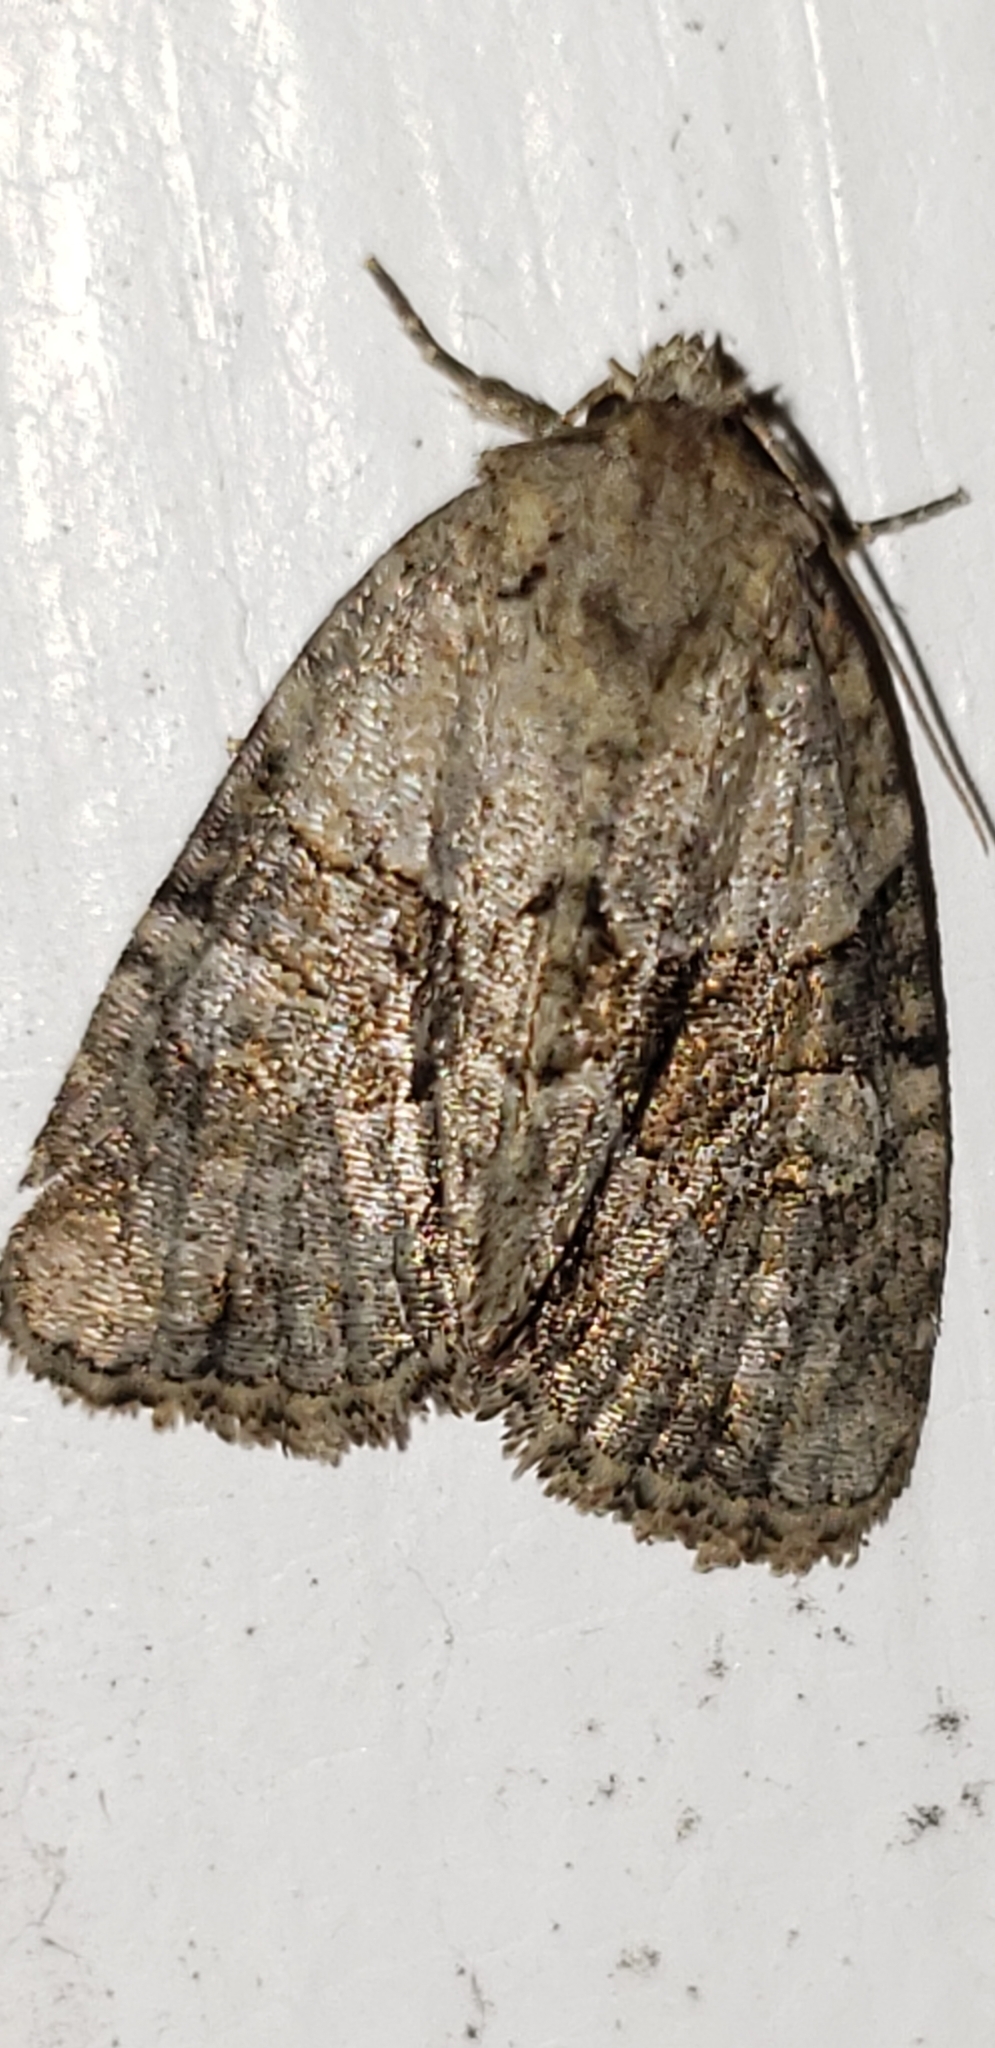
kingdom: Animalia
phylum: Arthropoda
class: Insecta
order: Lepidoptera
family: Noctuidae
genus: Neoligia
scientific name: Neoligia exhausta
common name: Exhausted brocade
